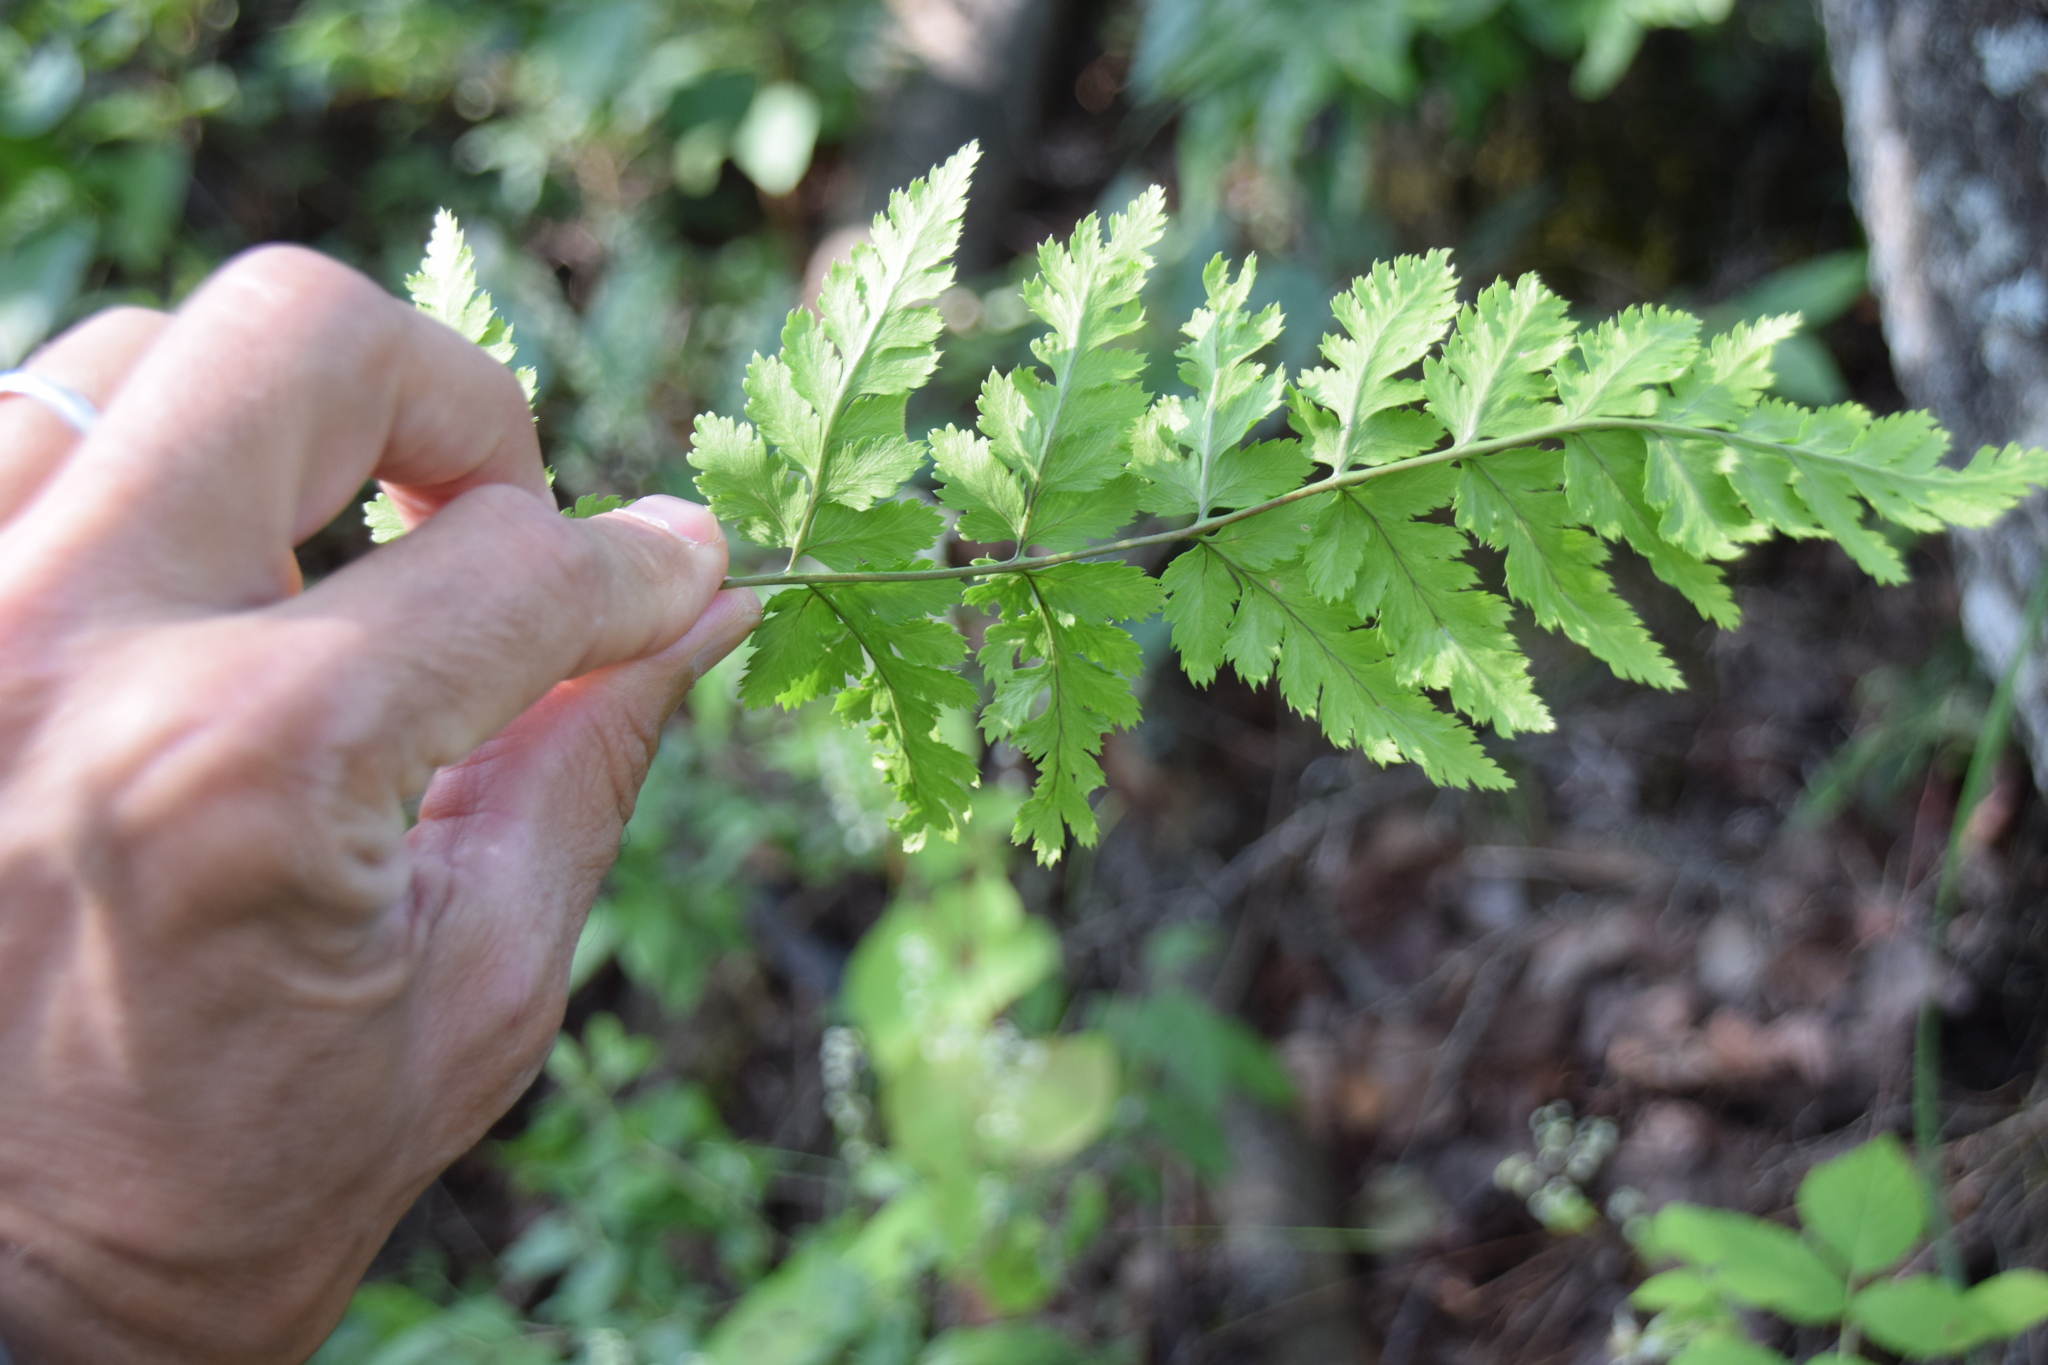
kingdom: Plantae
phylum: Tracheophyta
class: Polypodiopsida
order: Polypodiales
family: Dryopteridaceae
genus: Dryopteris
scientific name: Dryopteris carthusiana
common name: Narrow buckler-fern
